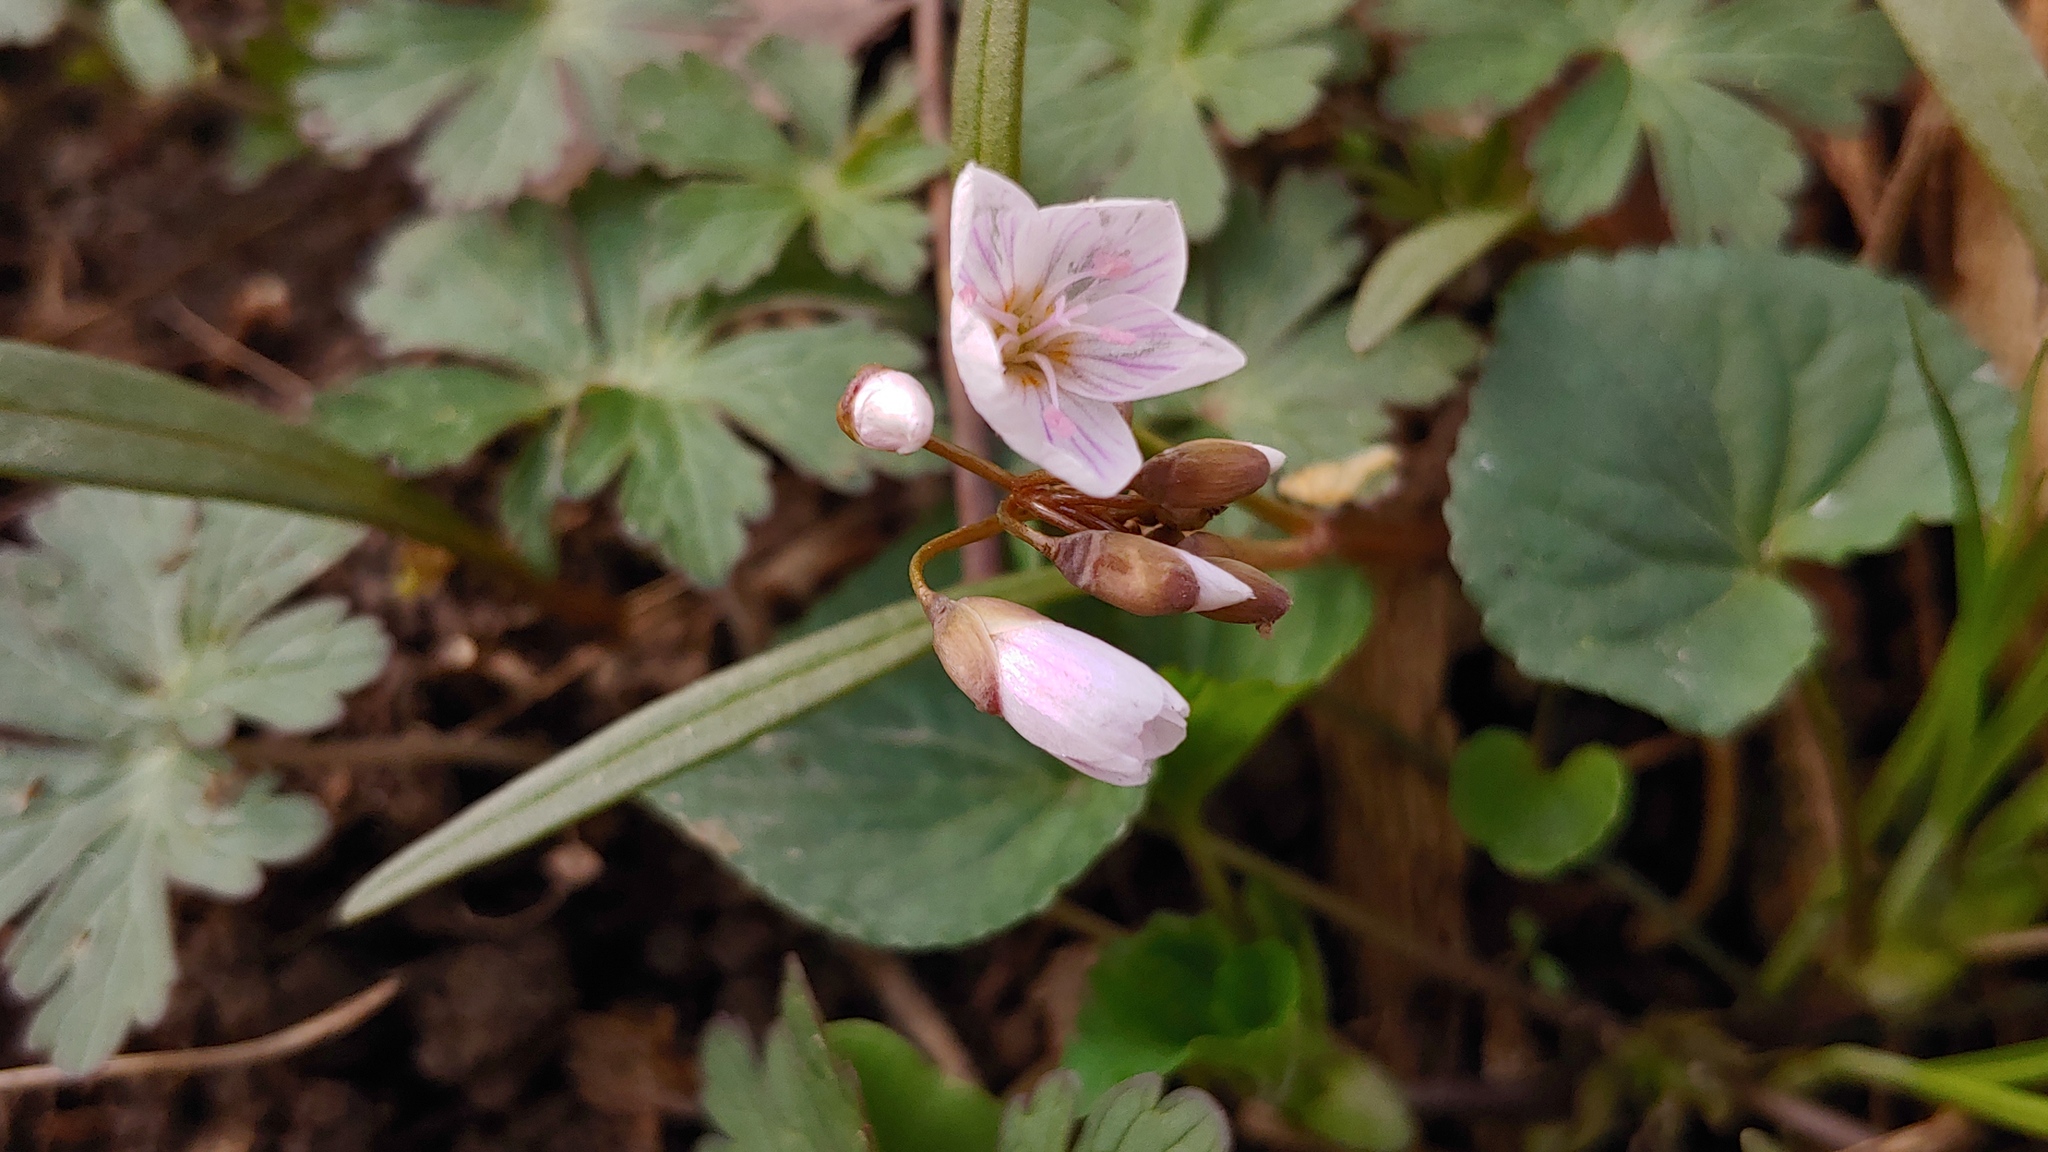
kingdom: Plantae
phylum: Tracheophyta
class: Magnoliopsida
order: Caryophyllales
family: Montiaceae
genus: Claytonia
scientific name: Claytonia virginica
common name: Virginia springbeauty
